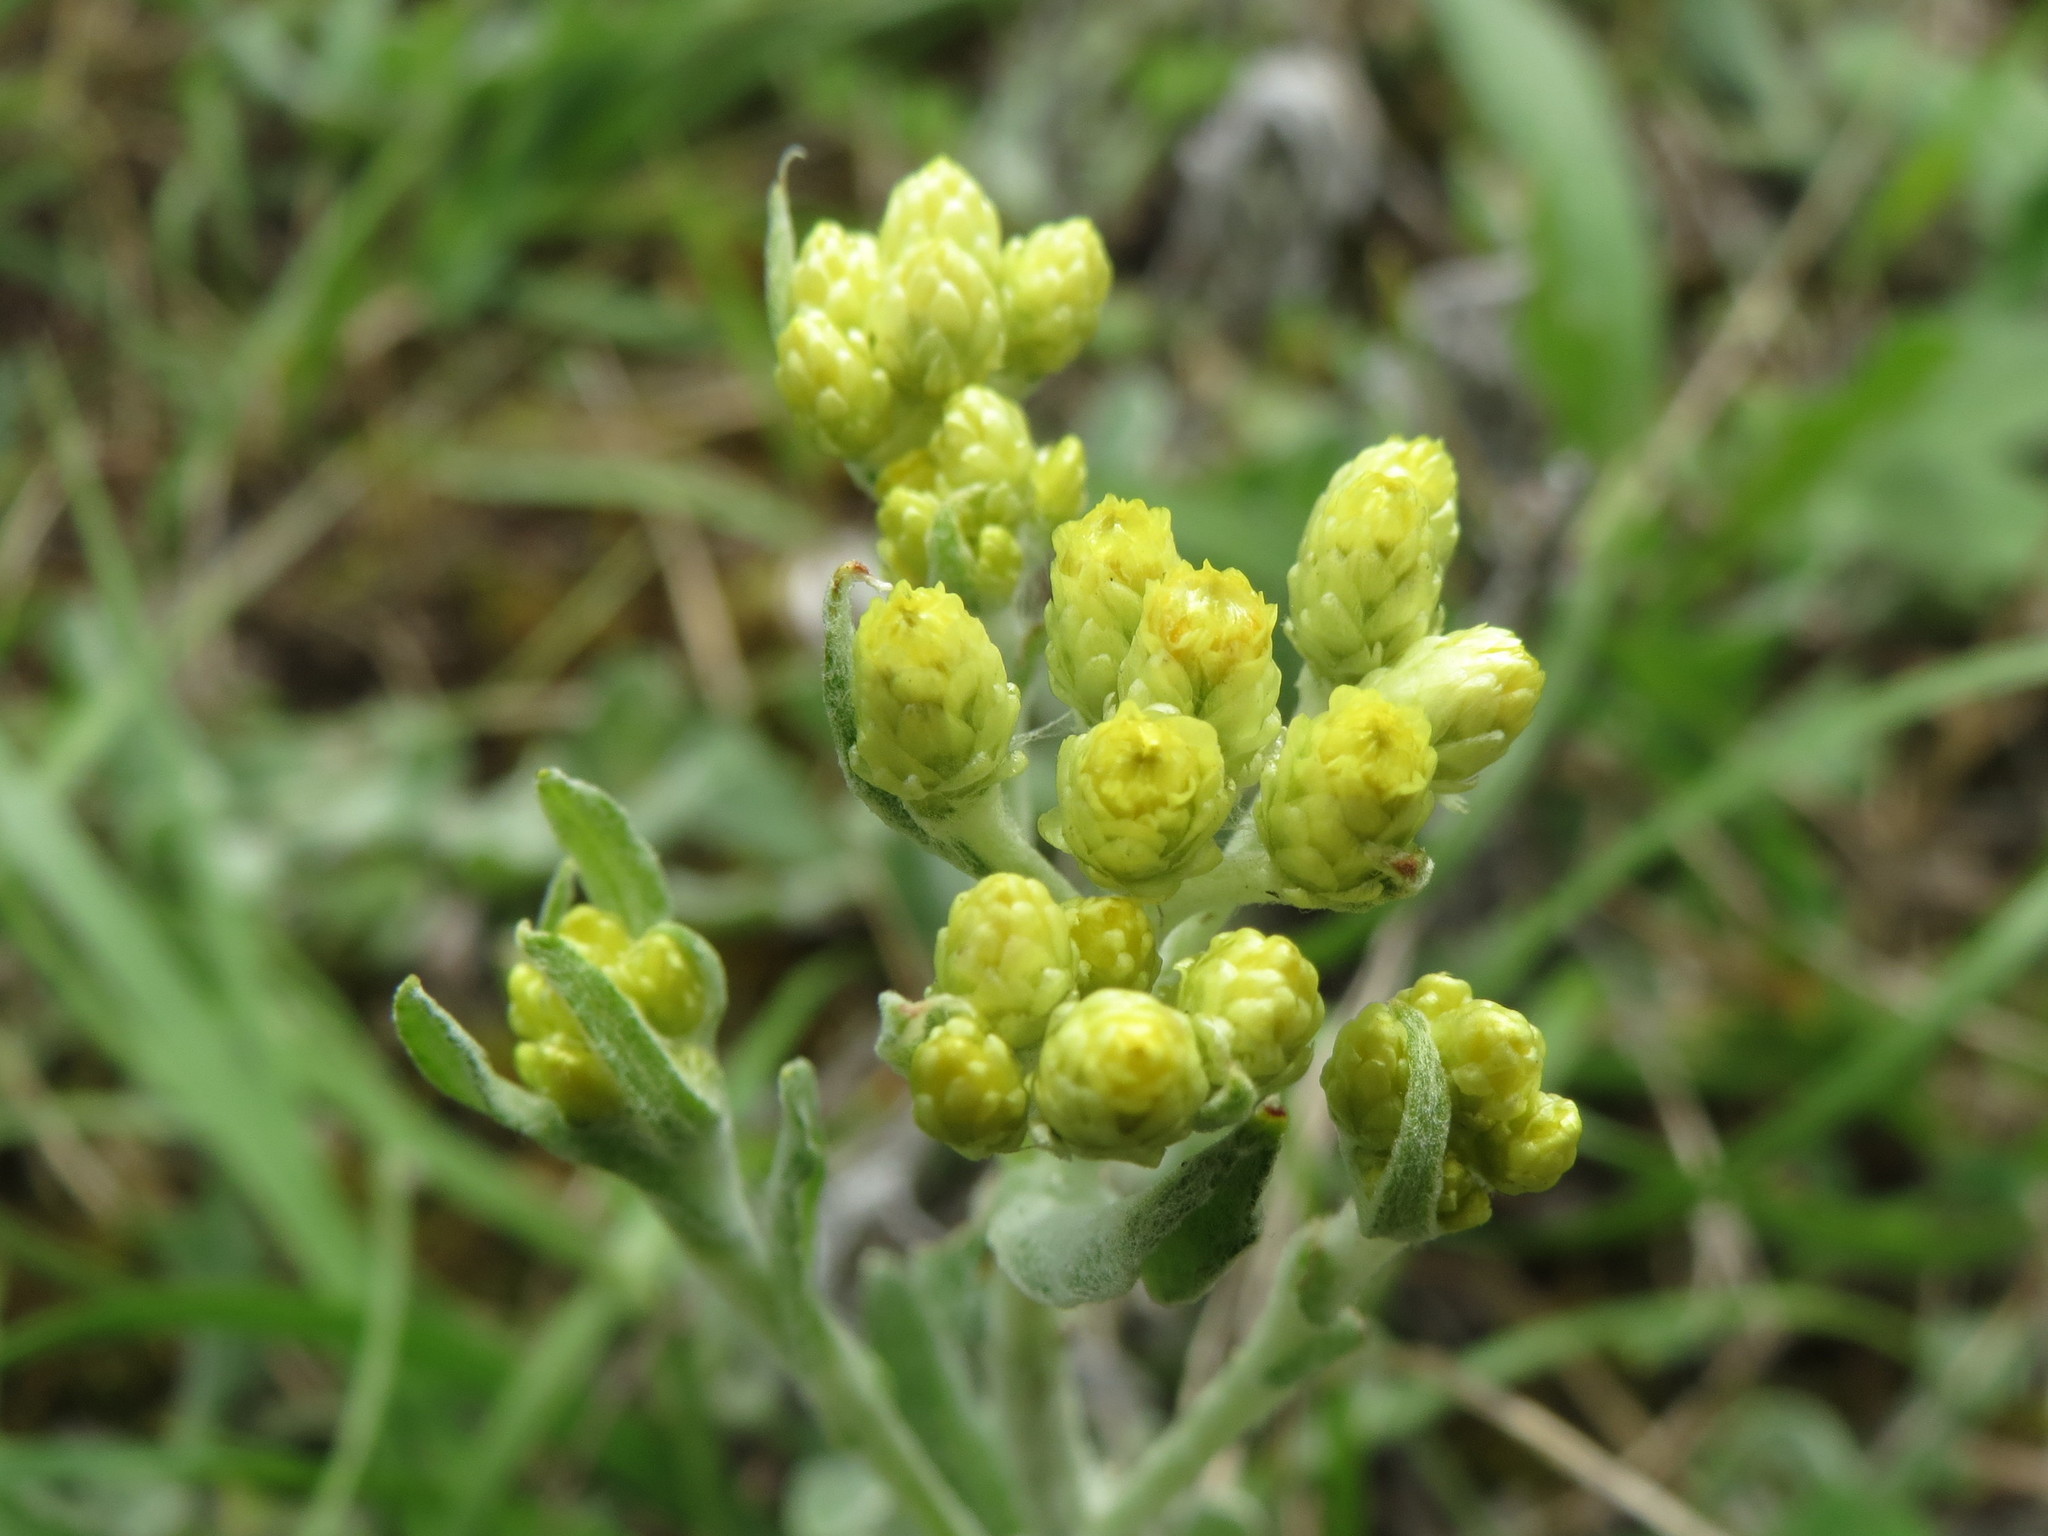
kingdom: Plantae
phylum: Tracheophyta
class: Magnoliopsida
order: Asterales
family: Asteraceae
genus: Helichrysum
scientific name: Helichrysum arenarium
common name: Strawflower
